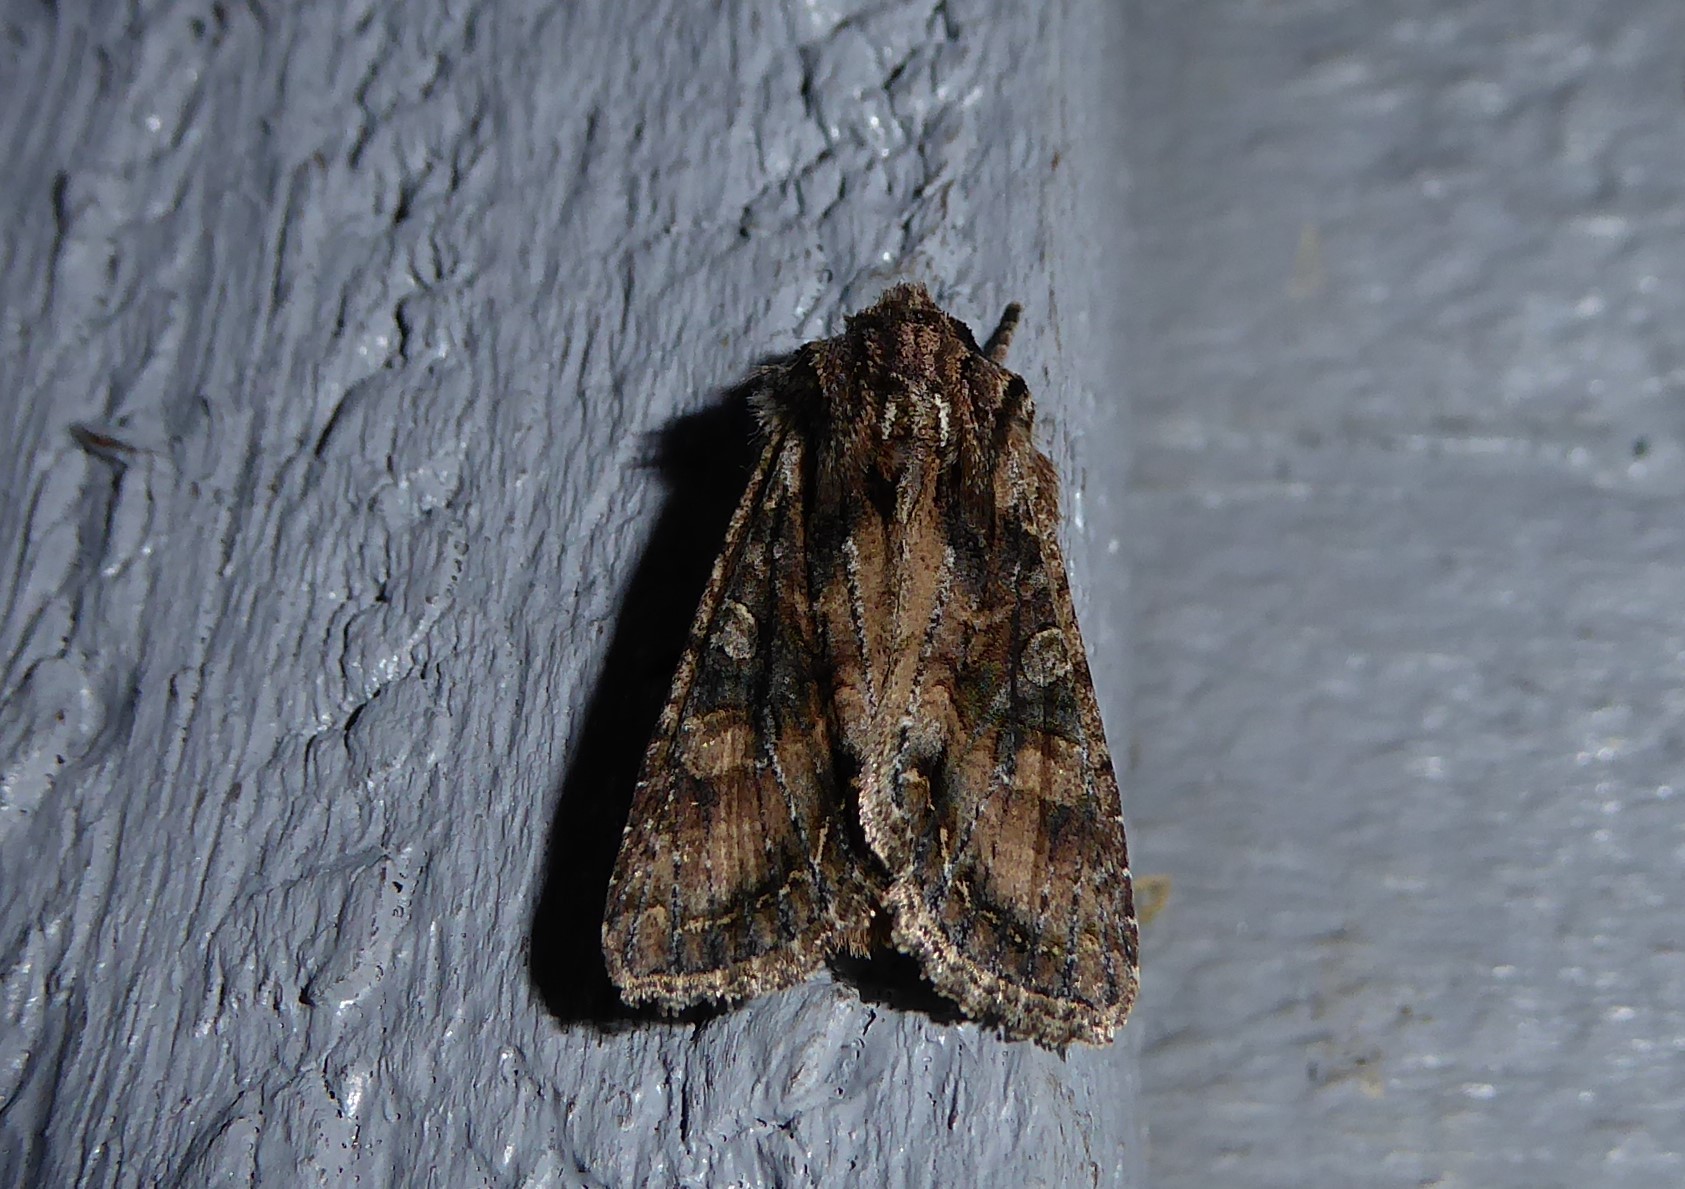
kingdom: Animalia
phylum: Arthropoda
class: Insecta
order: Lepidoptera
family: Noctuidae
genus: Ichneutica
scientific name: Ichneutica mutans
